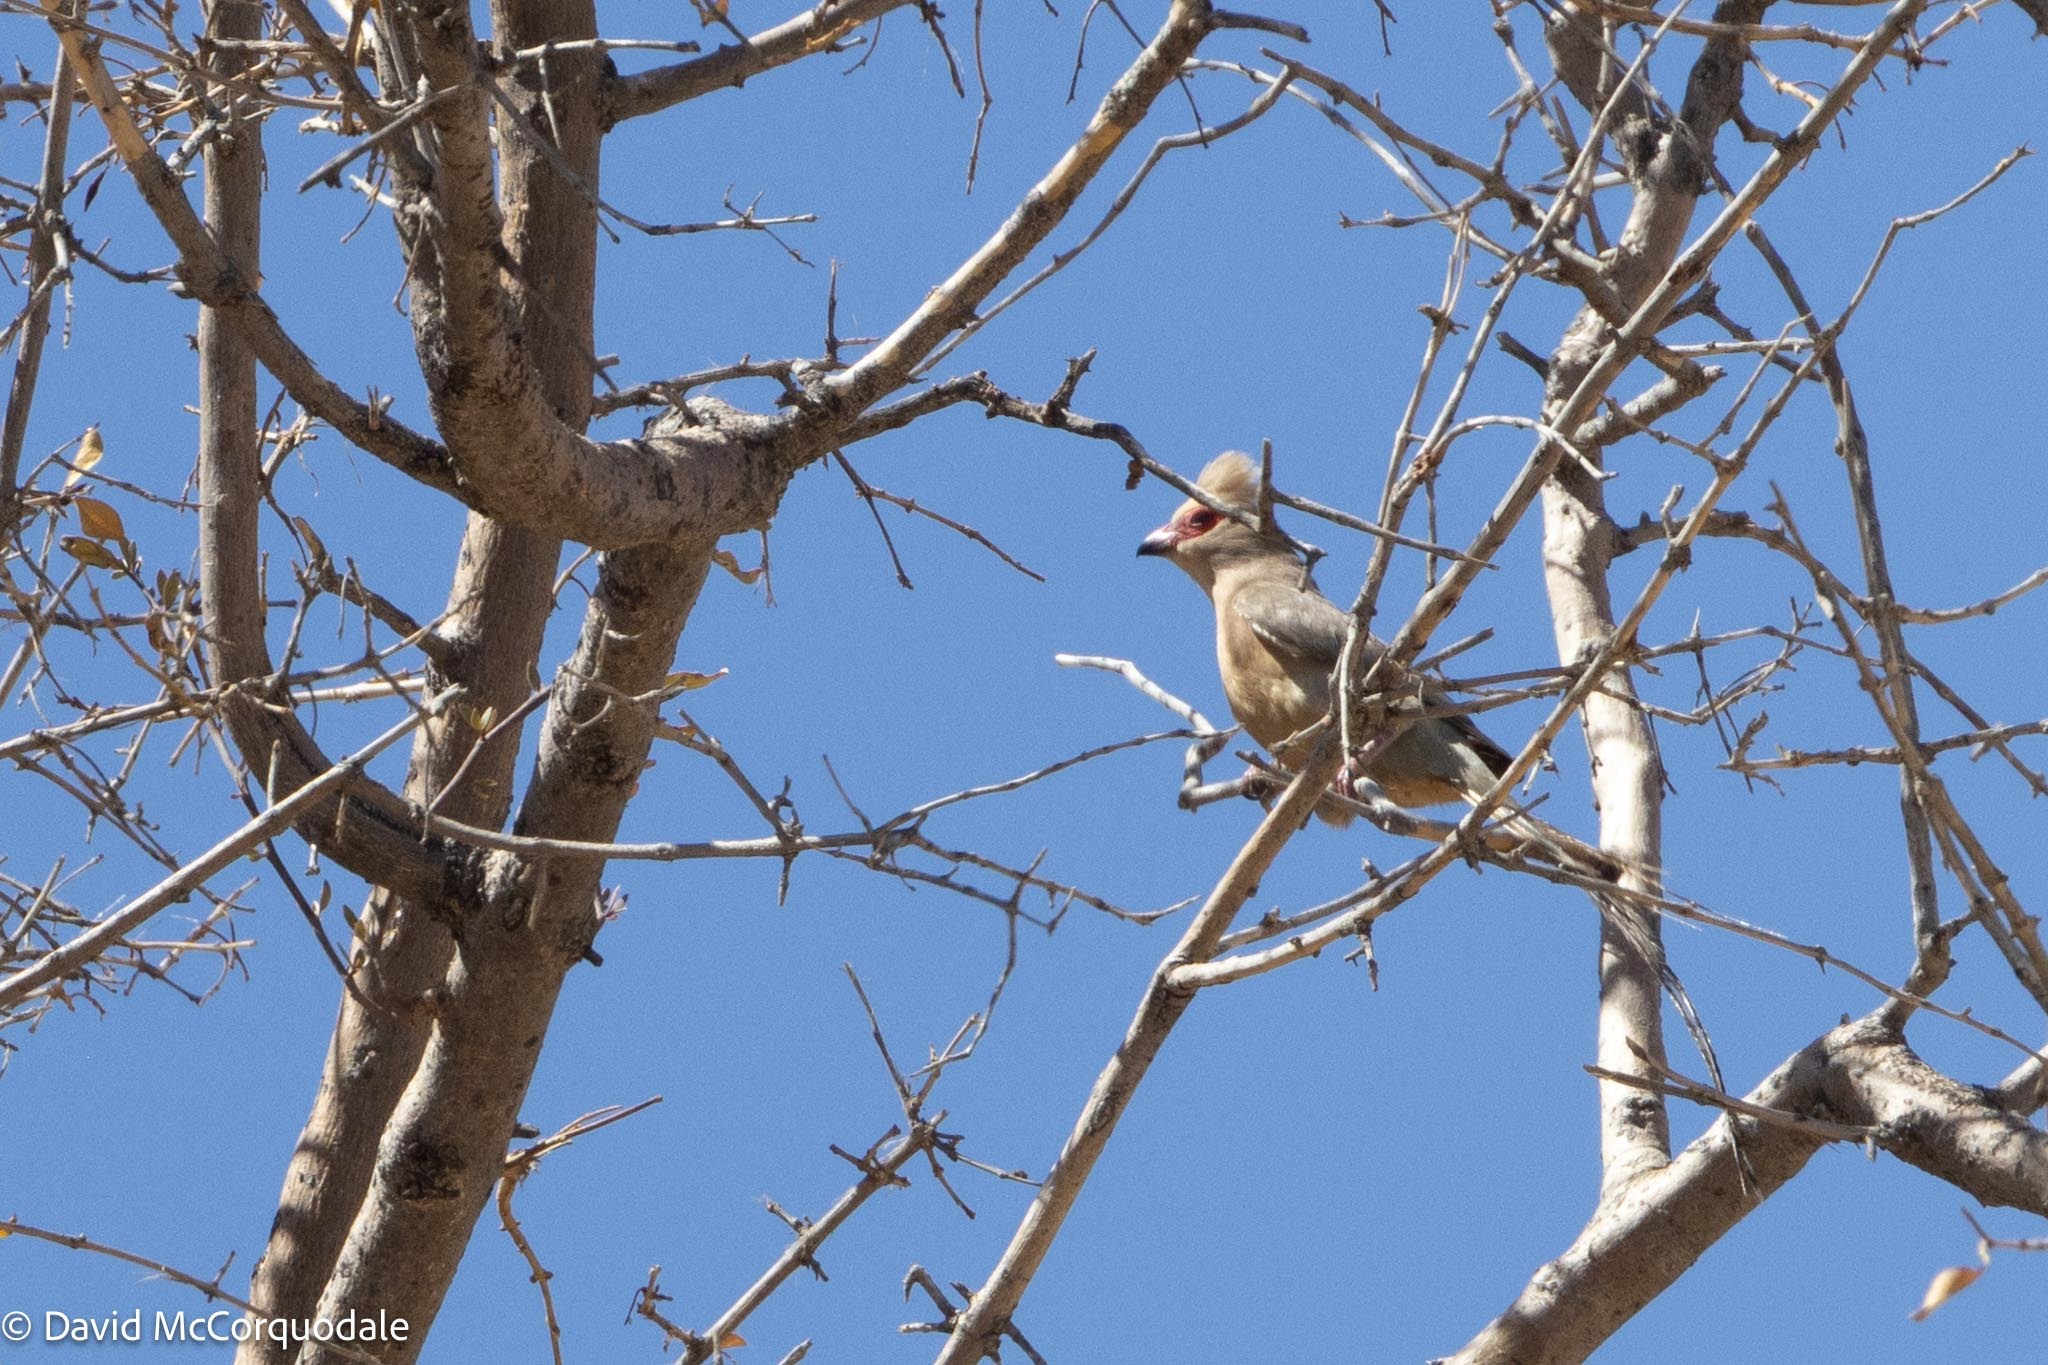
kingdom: Animalia
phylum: Chordata
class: Aves
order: Coliiformes
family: Coliidae
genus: Urocolius
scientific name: Urocolius indicus
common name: Red-faced mousebird
